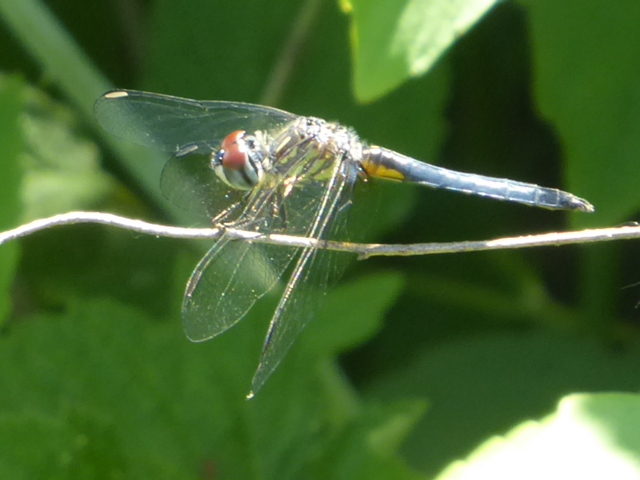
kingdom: Animalia
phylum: Arthropoda
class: Insecta
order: Odonata
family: Libellulidae
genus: Pachydiplax
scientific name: Pachydiplax longipennis
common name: Blue dasher
